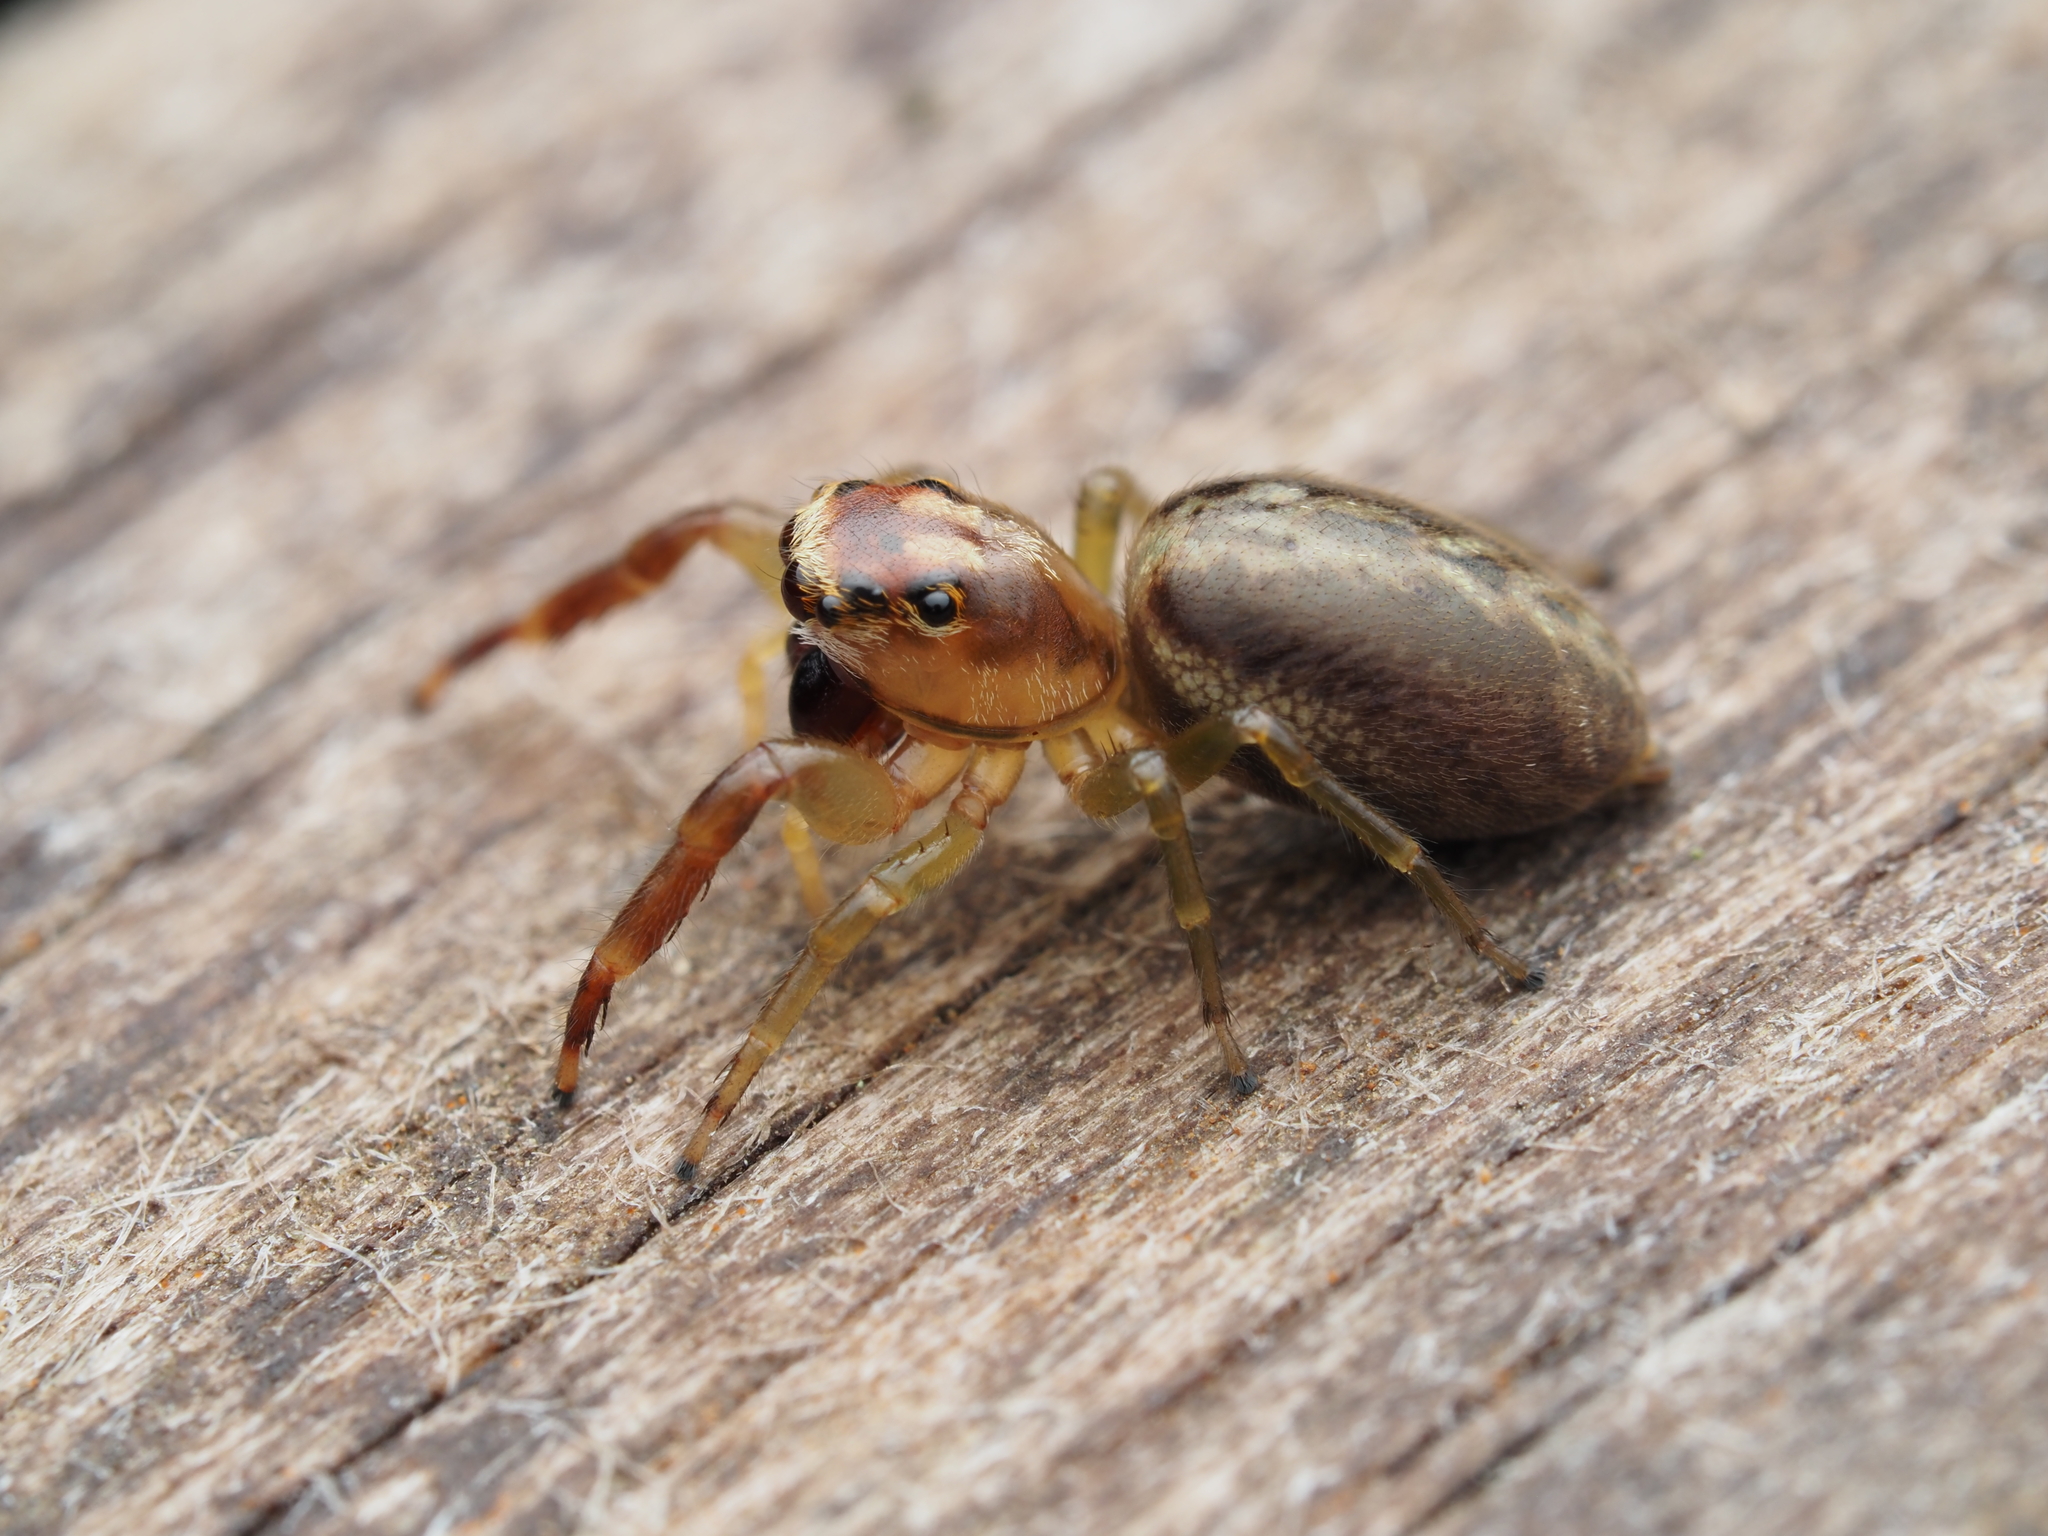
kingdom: Animalia
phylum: Arthropoda
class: Arachnida
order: Araneae
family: Salticidae
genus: Trite
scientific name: Trite mustilina
